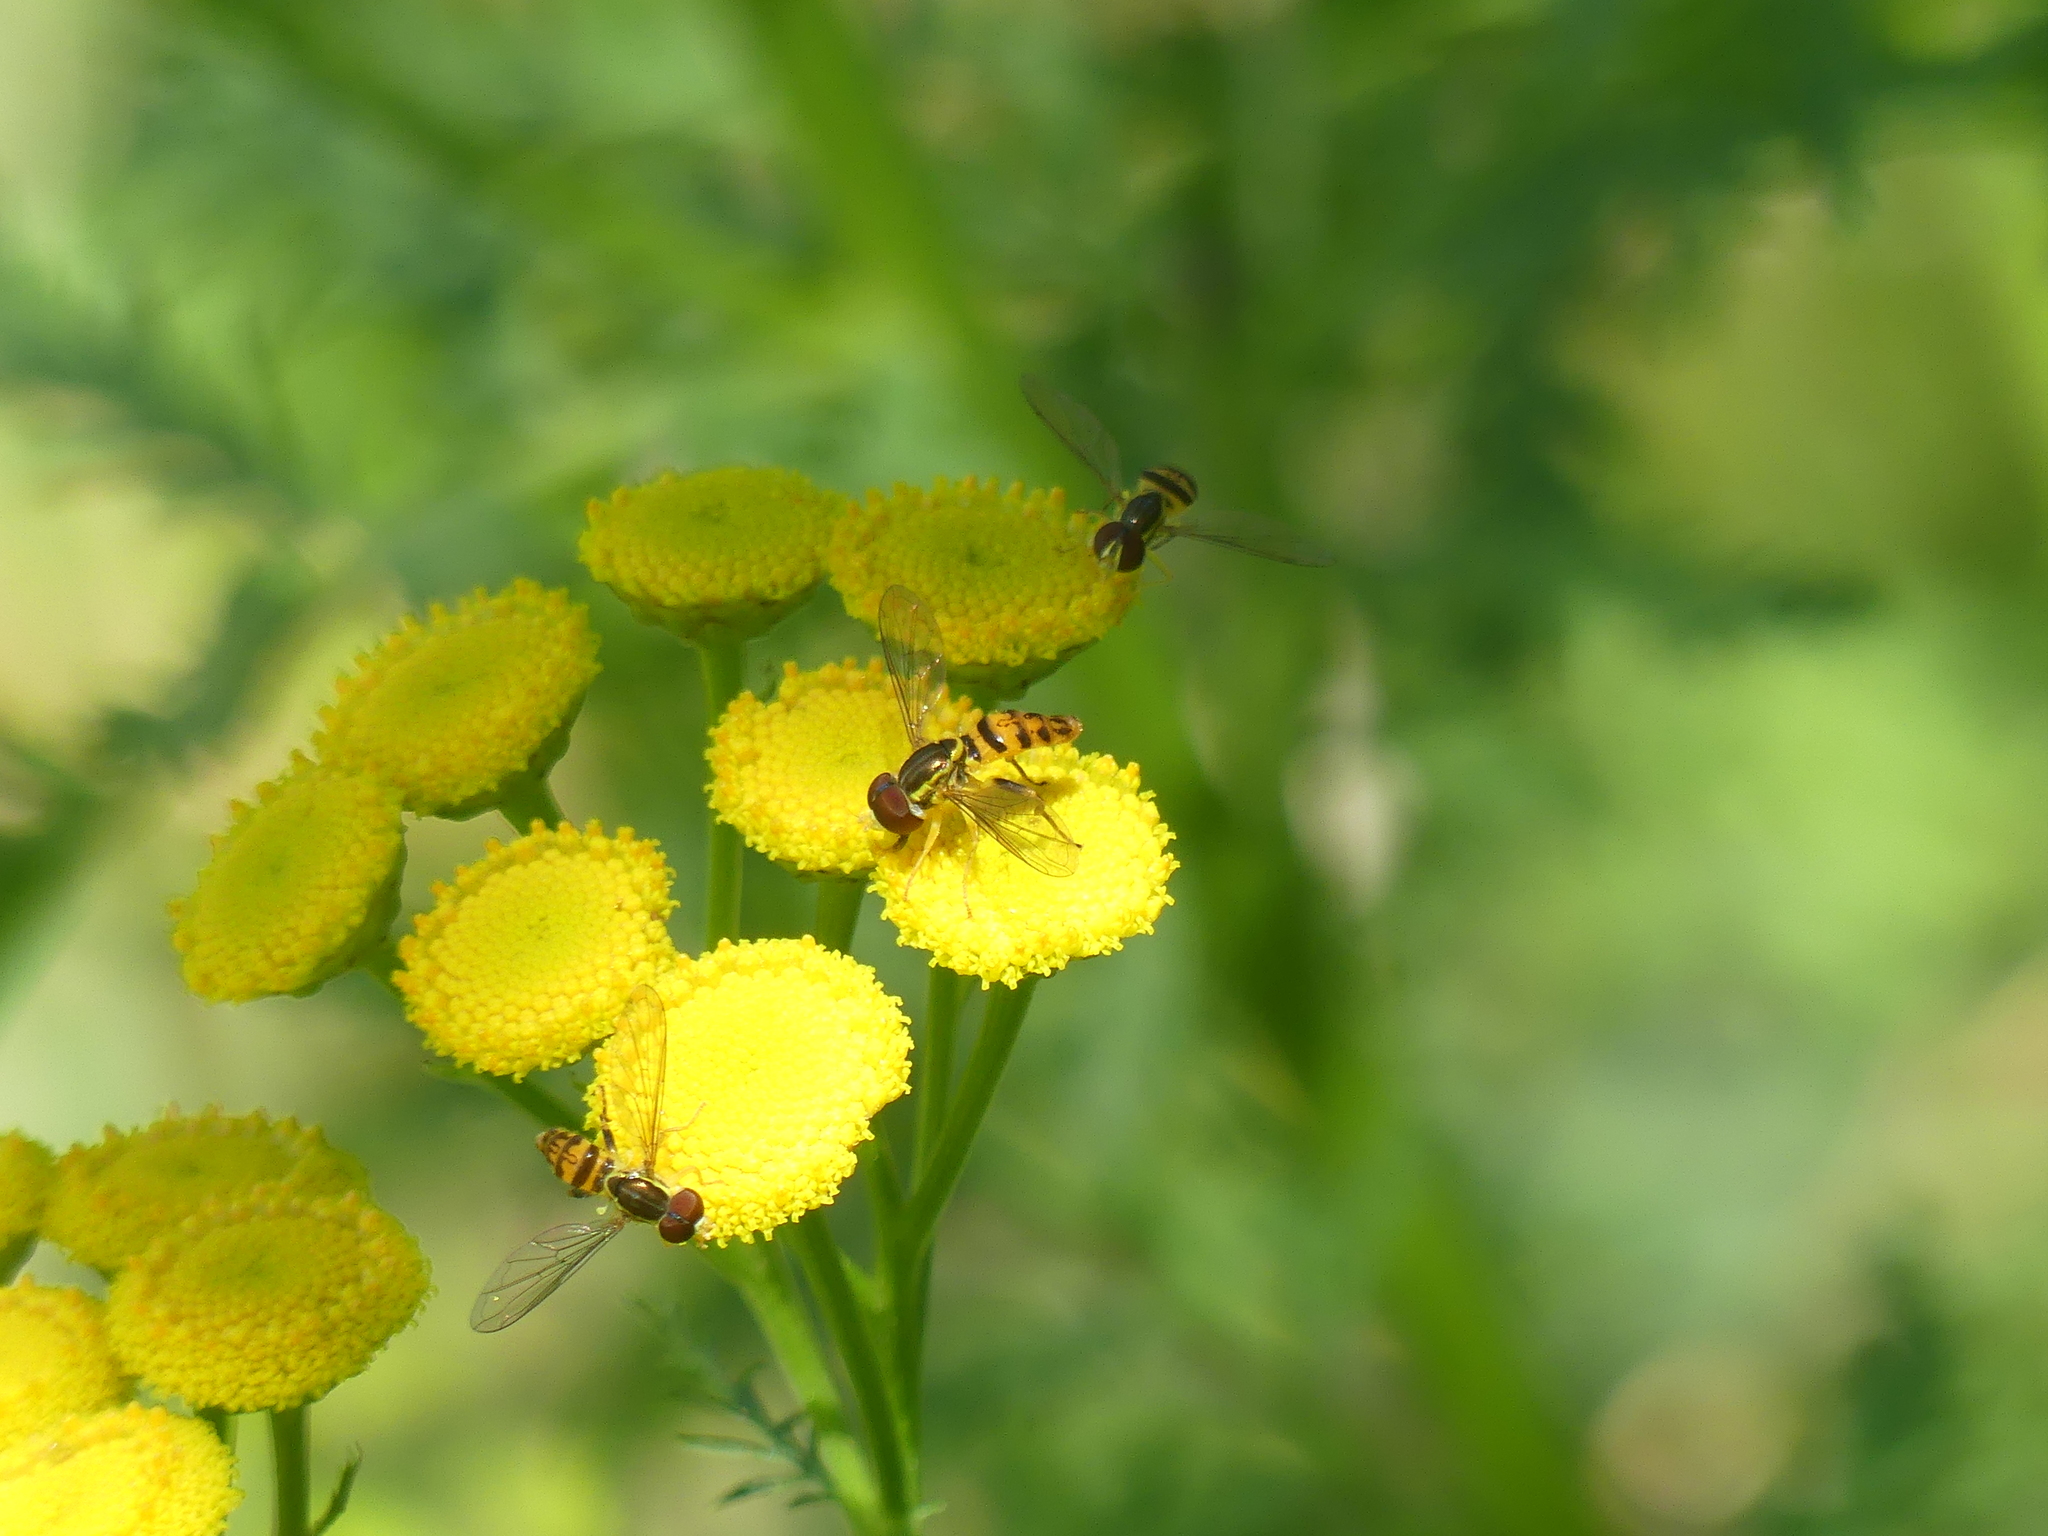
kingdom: Plantae
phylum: Tracheophyta
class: Magnoliopsida
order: Asterales
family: Asteraceae
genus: Tanacetum
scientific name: Tanacetum vulgare
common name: Common tansy
